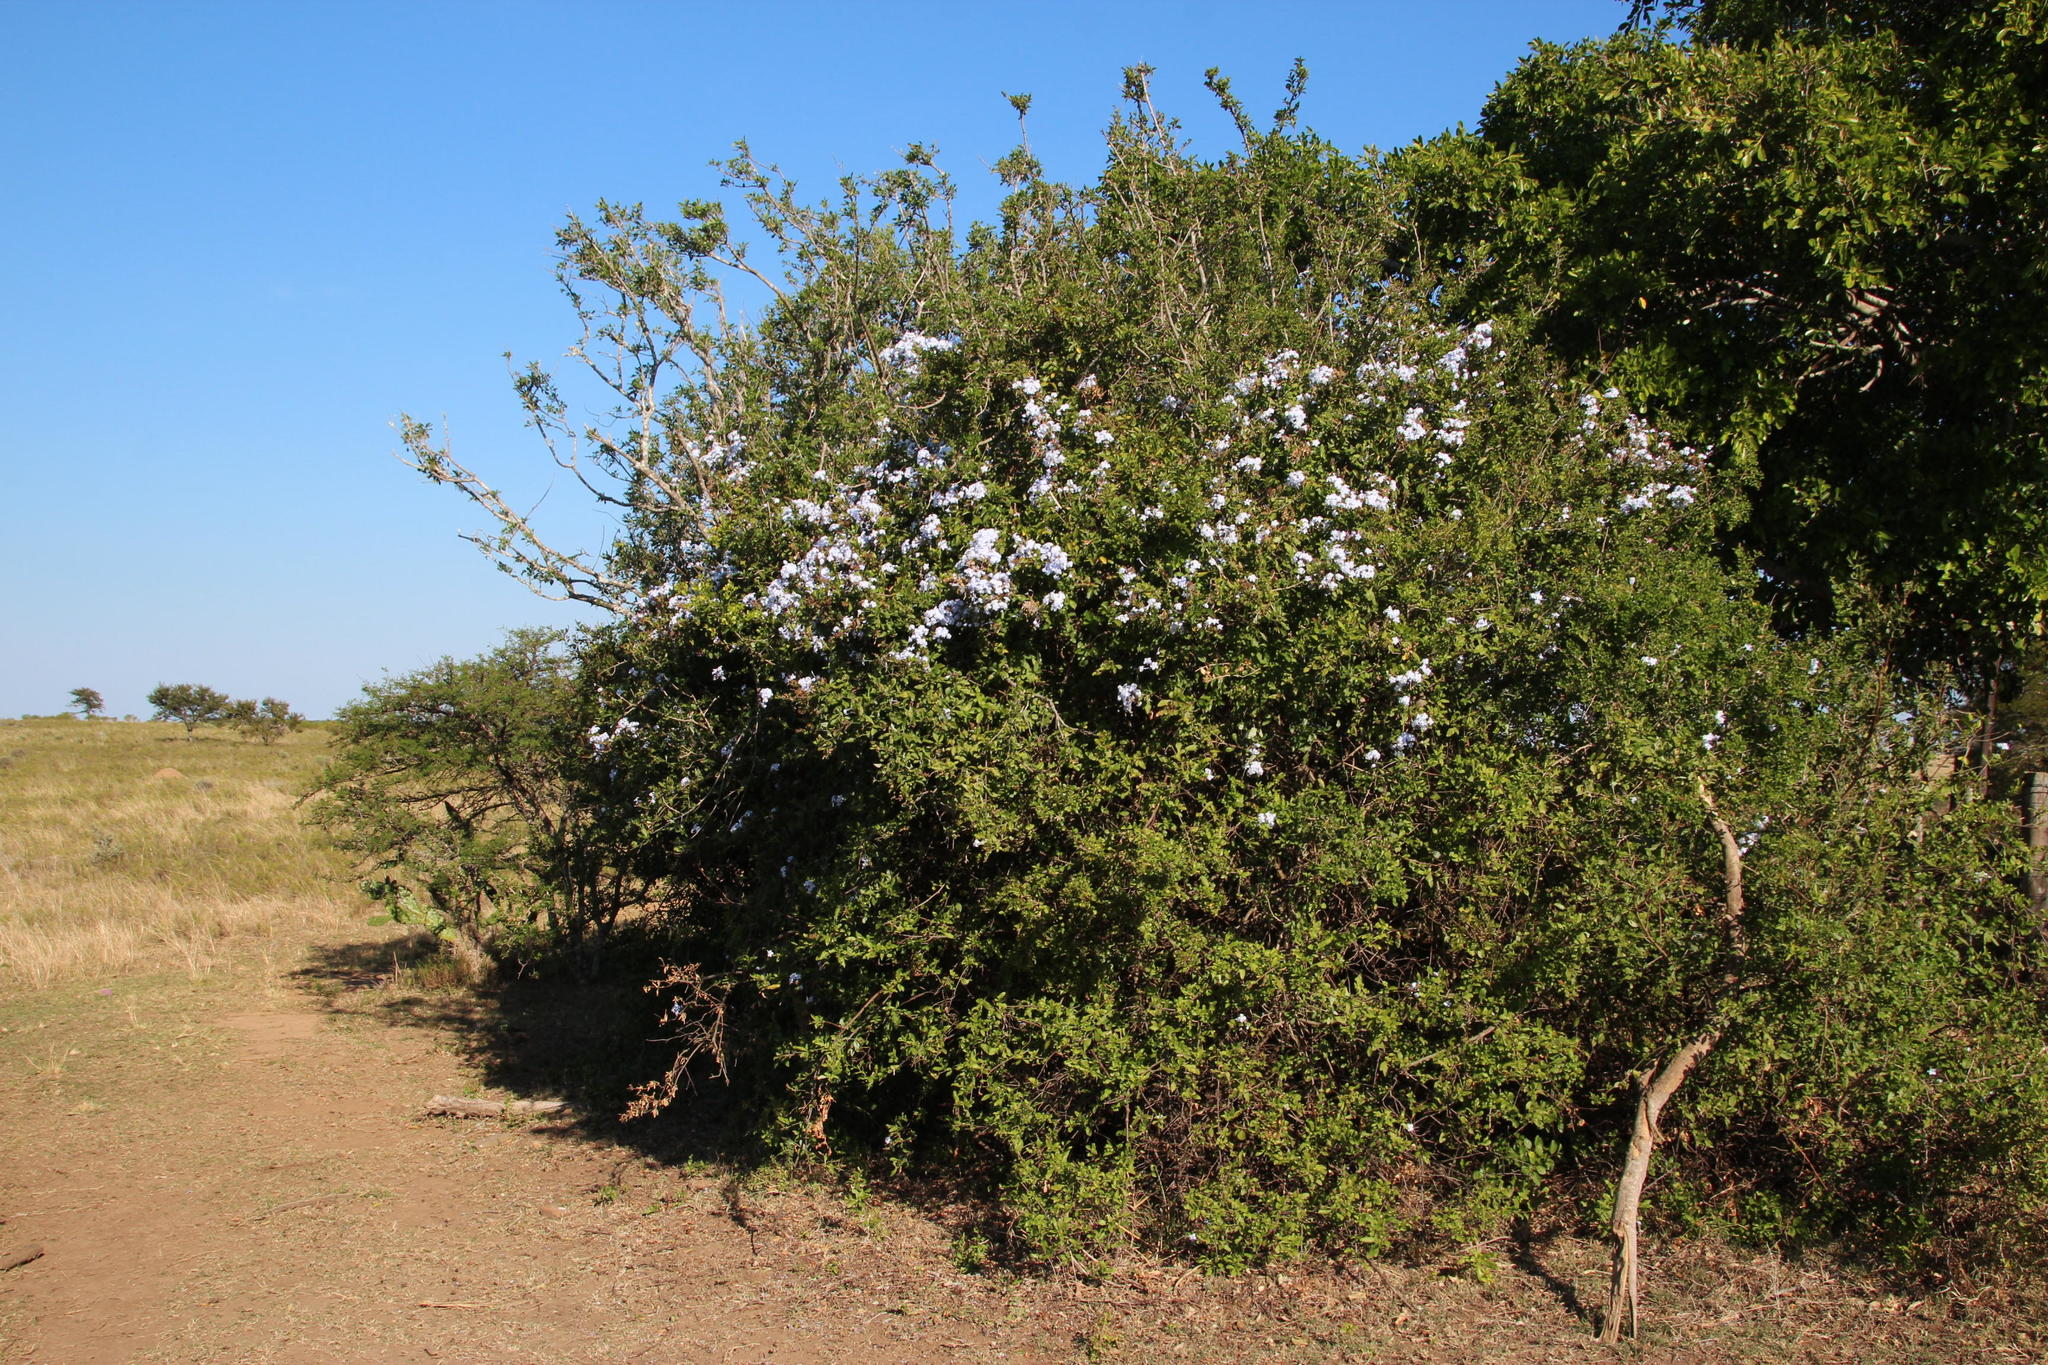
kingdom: Plantae
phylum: Tracheophyta
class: Magnoliopsida
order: Caryophyllales
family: Plumbaginaceae
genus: Plumbago
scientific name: Plumbago auriculata
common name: Cape leadwort
